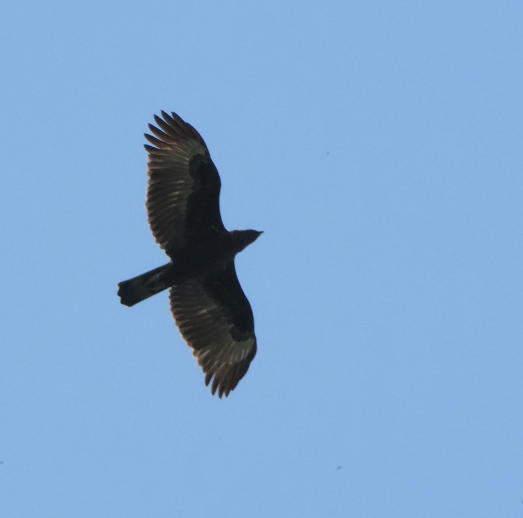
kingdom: Animalia
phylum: Chordata
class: Aves
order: Accipitriformes
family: Accipitridae
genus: Nisaetus
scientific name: Nisaetus cirrhatus
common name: Changeable hawk-eagle
